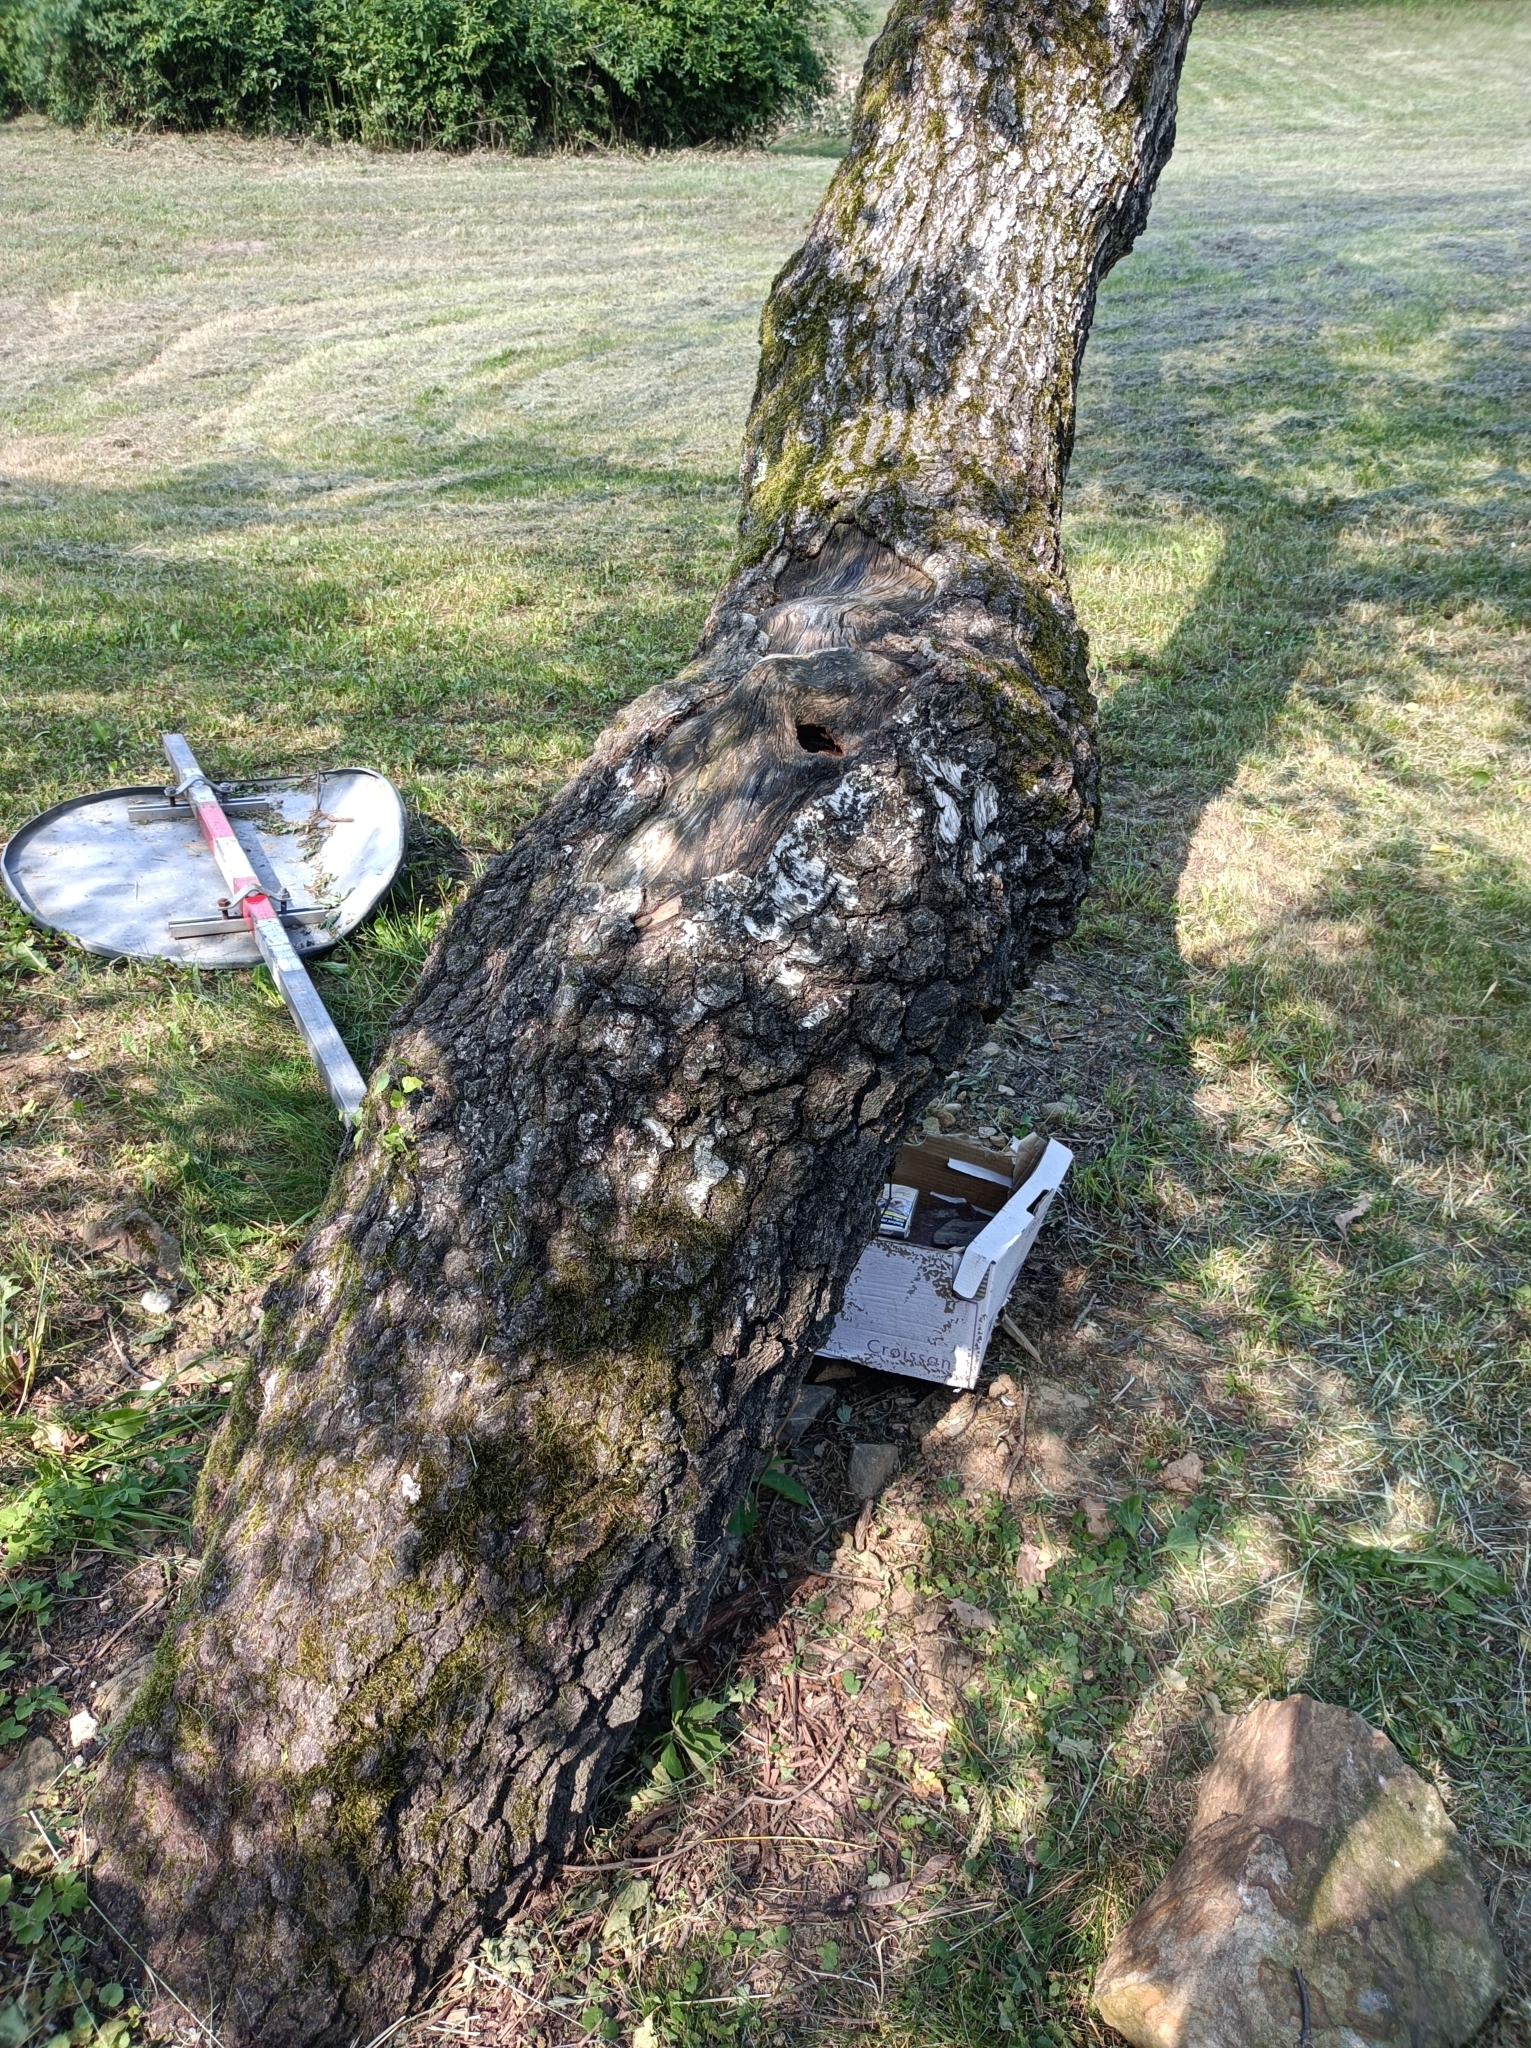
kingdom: Animalia
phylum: Arthropoda
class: Insecta
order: Hymenoptera
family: Formicidae
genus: Lasius
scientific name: Lasius emarginatus
